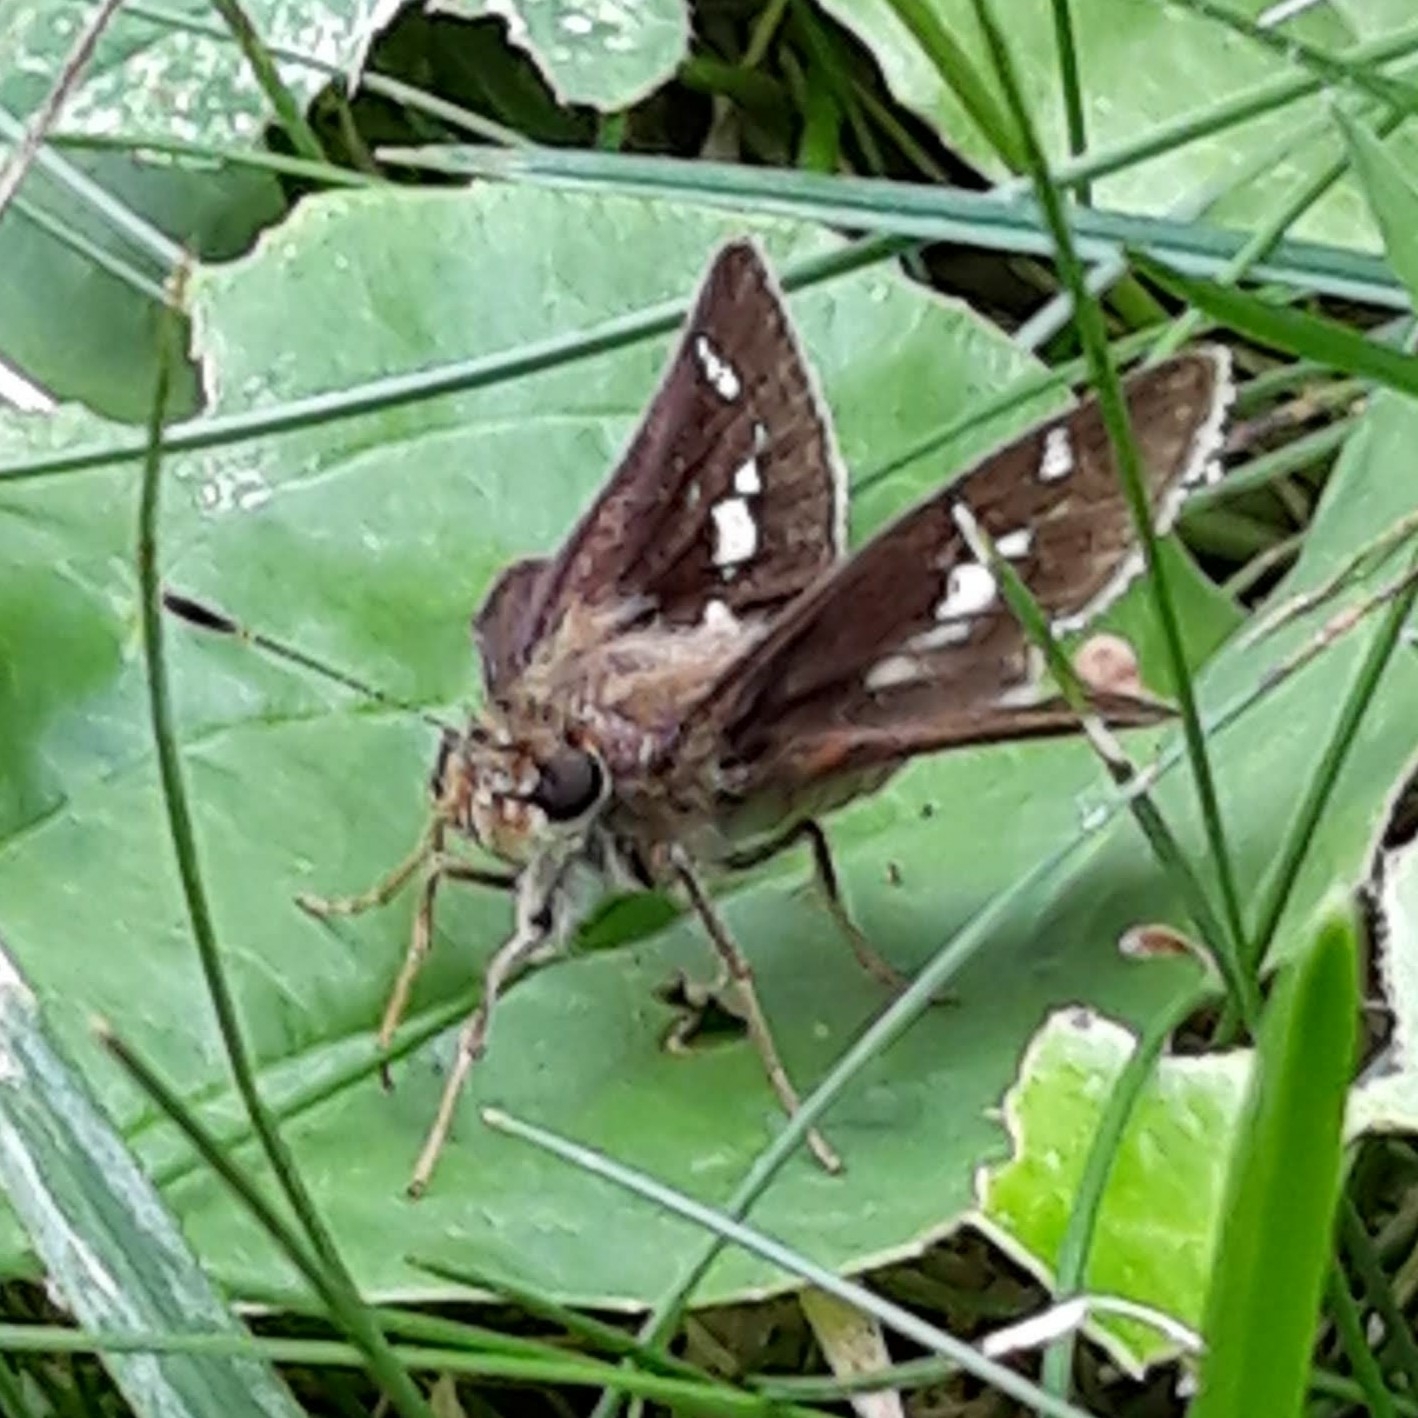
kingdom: Animalia
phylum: Arthropoda
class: Insecta
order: Lepidoptera
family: Hesperiidae
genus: Vernia
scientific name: Vernia verna
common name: Little glassywing
